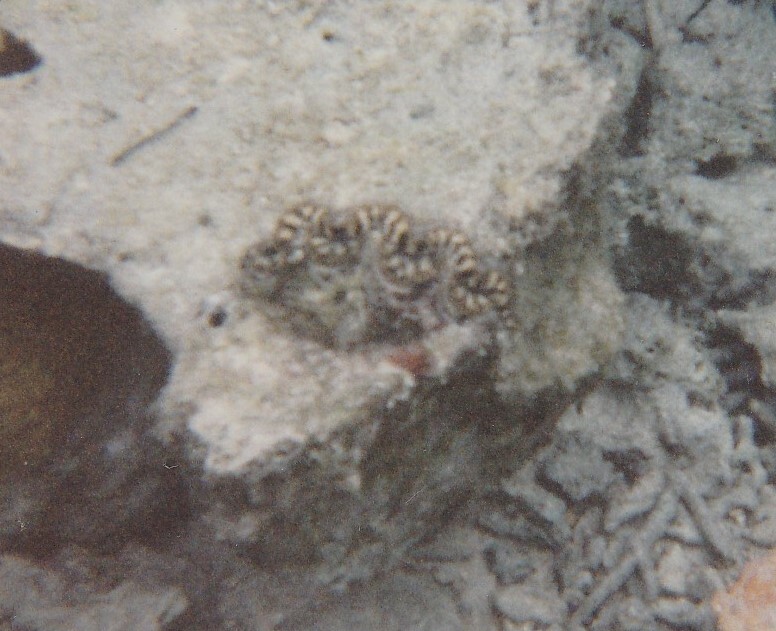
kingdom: Animalia
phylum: Mollusca
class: Bivalvia
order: Cardiida
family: Cardiidae
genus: Tridacna
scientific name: Tridacna maxima
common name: Small giant clam
